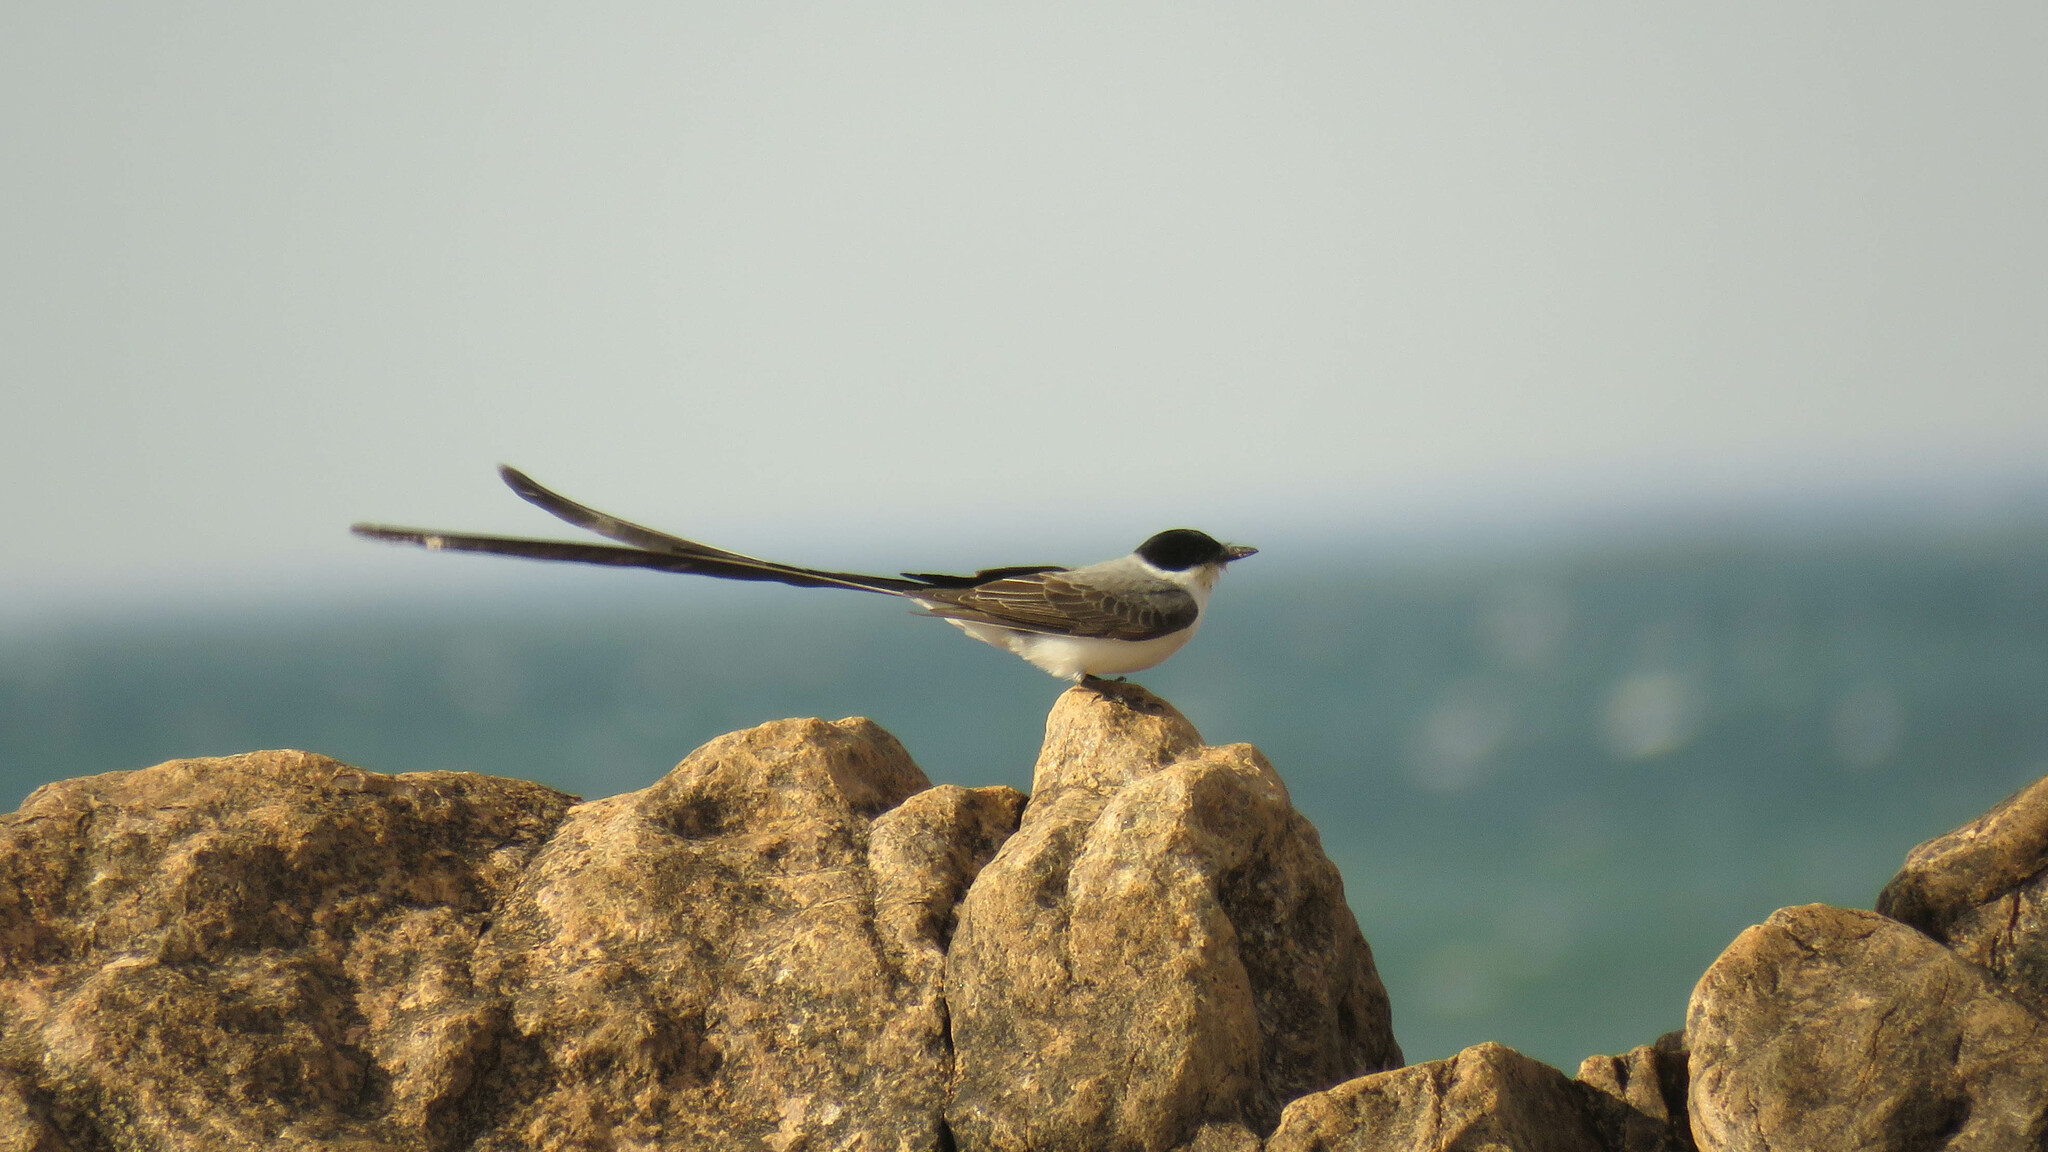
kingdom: Animalia
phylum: Chordata
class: Aves
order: Passeriformes
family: Tyrannidae
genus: Tyrannus
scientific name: Tyrannus savana
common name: Fork-tailed flycatcher
